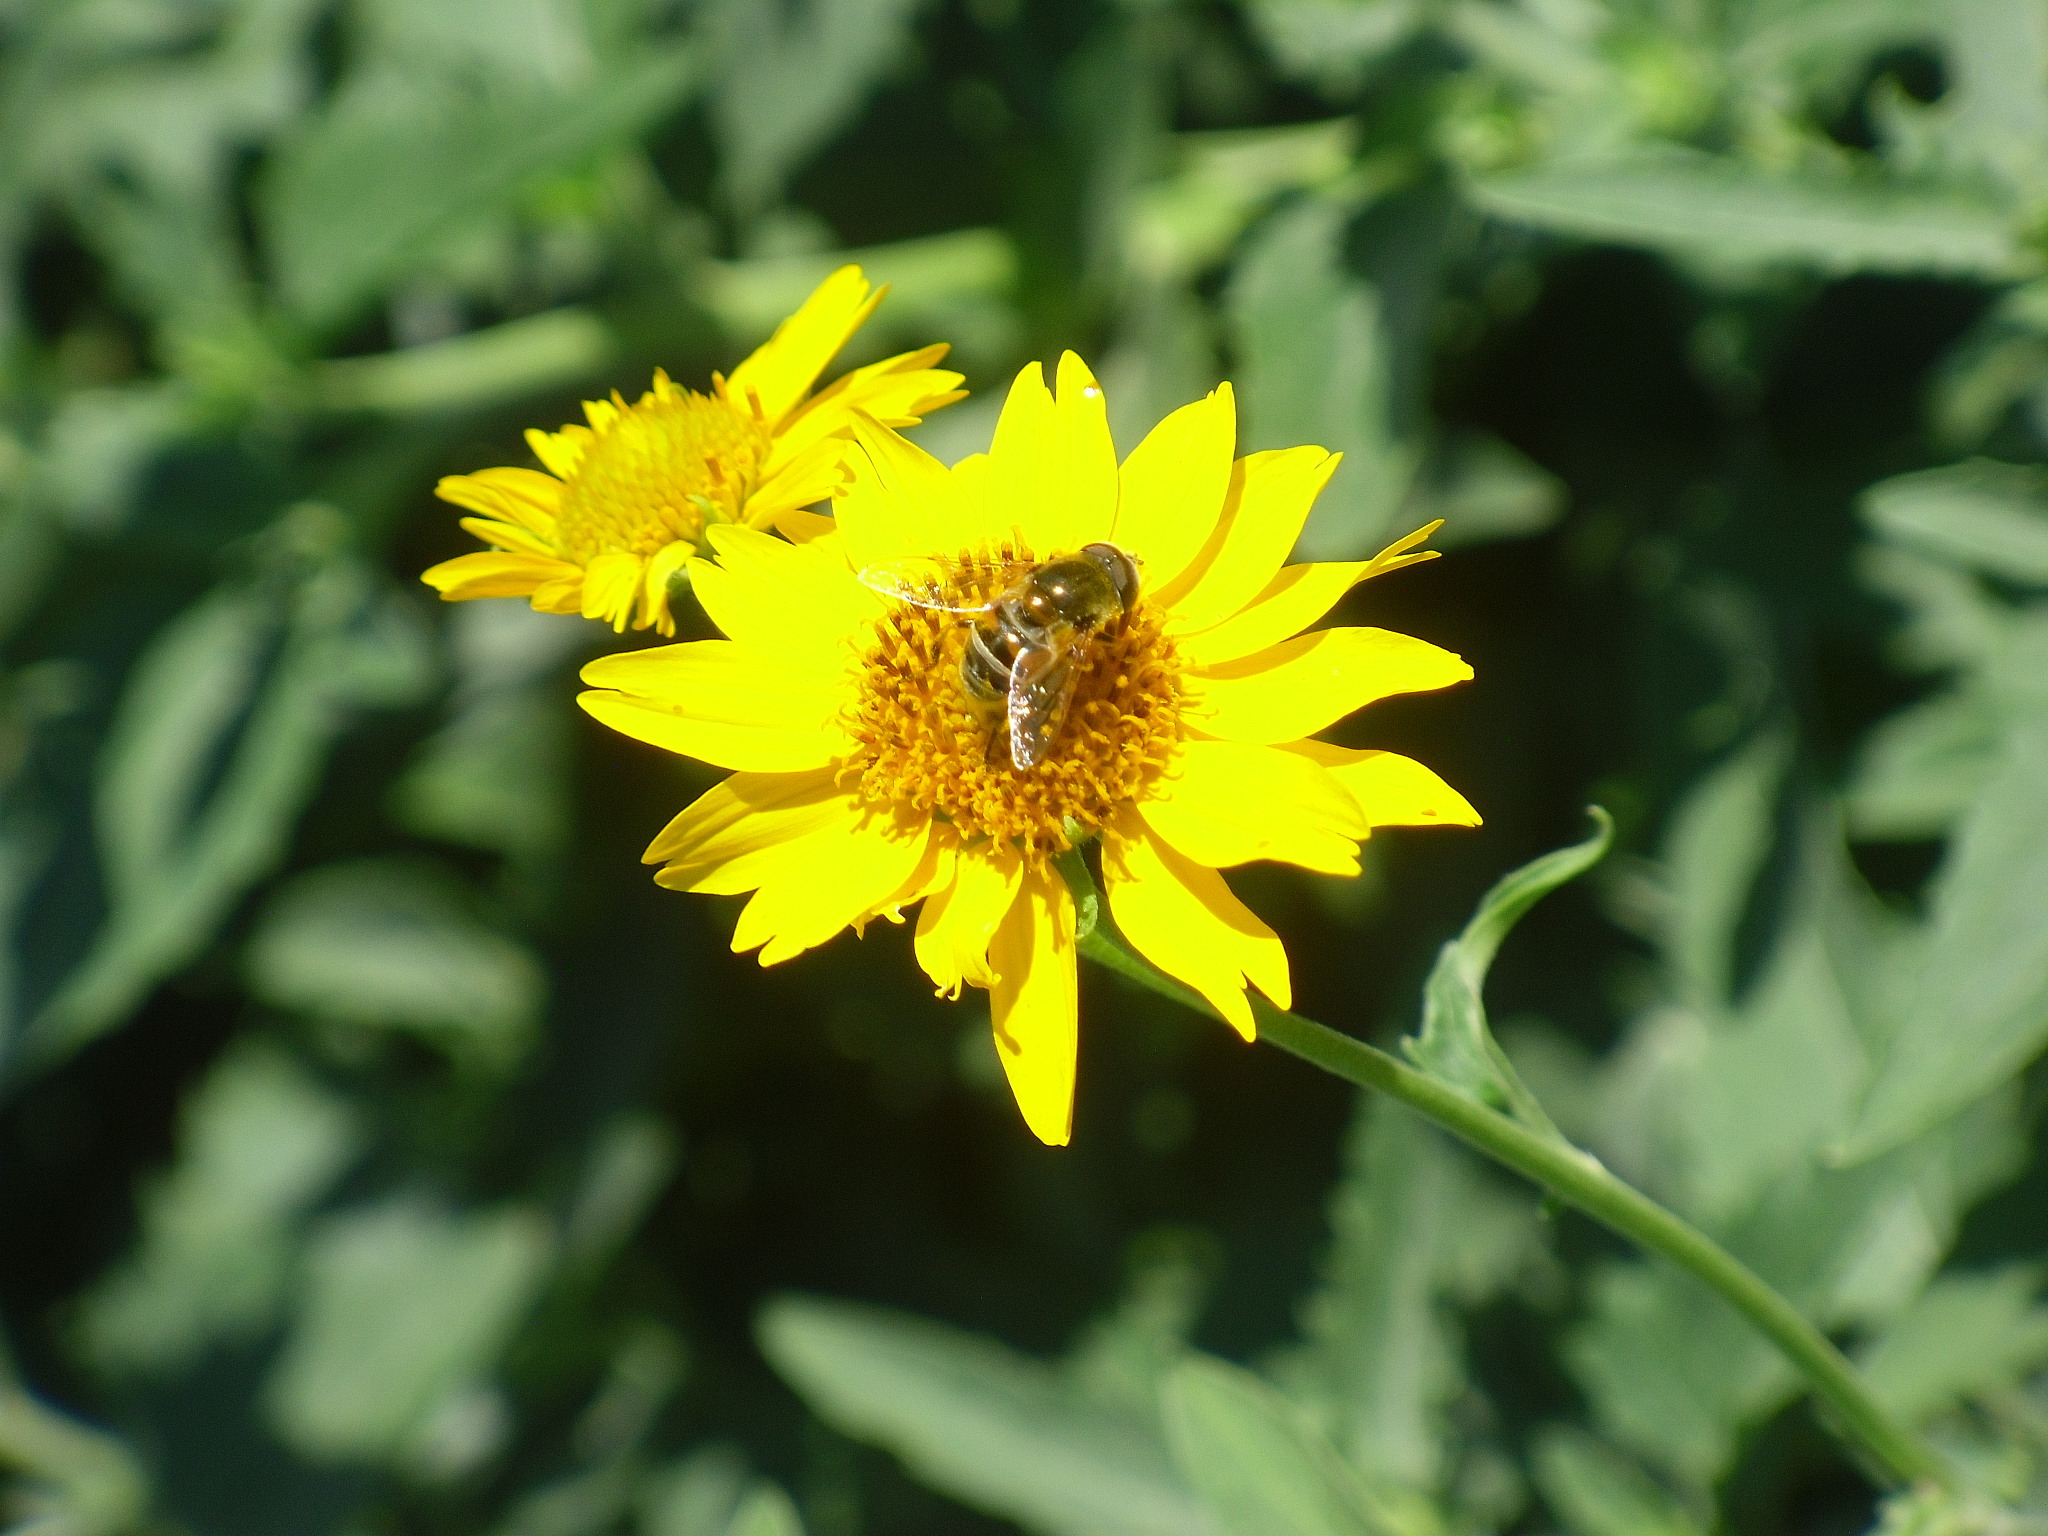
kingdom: Animalia
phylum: Arthropoda
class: Insecta
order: Diptera
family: Syrphidae
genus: Eristalis
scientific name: Eristalis stipator
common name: Yellow-shouldered drone fly
